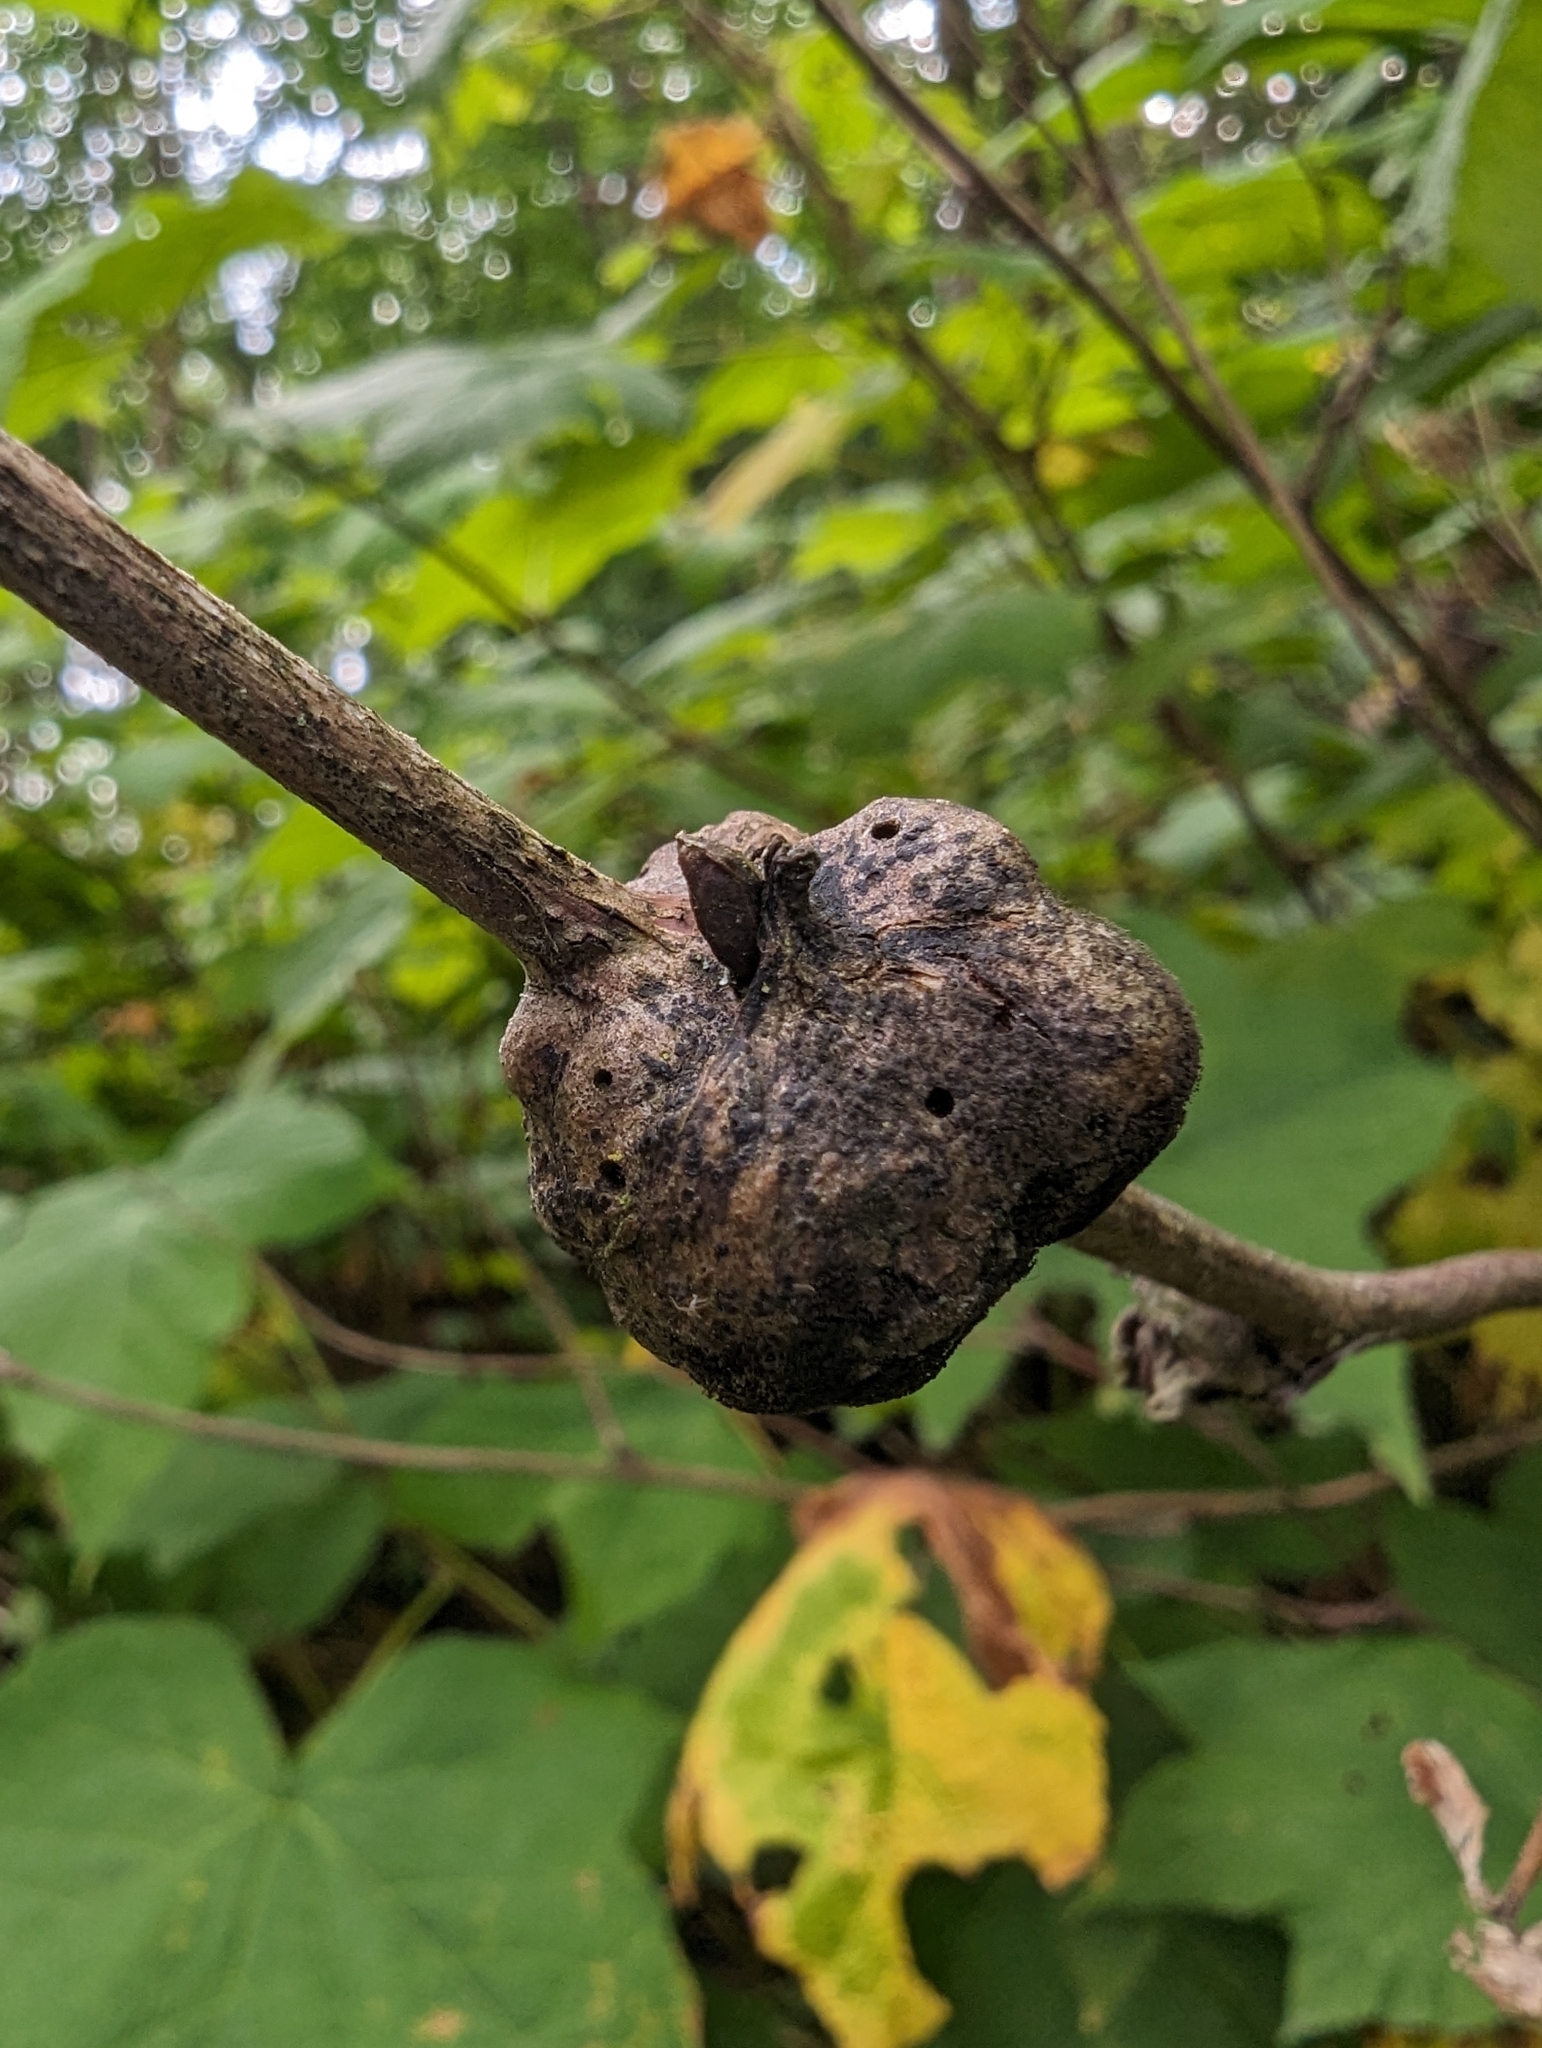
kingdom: Animalia
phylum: Arthropoda
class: Insecta
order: Hymenoptera
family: Cynipidae
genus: Diastrophus
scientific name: Diastrophus
